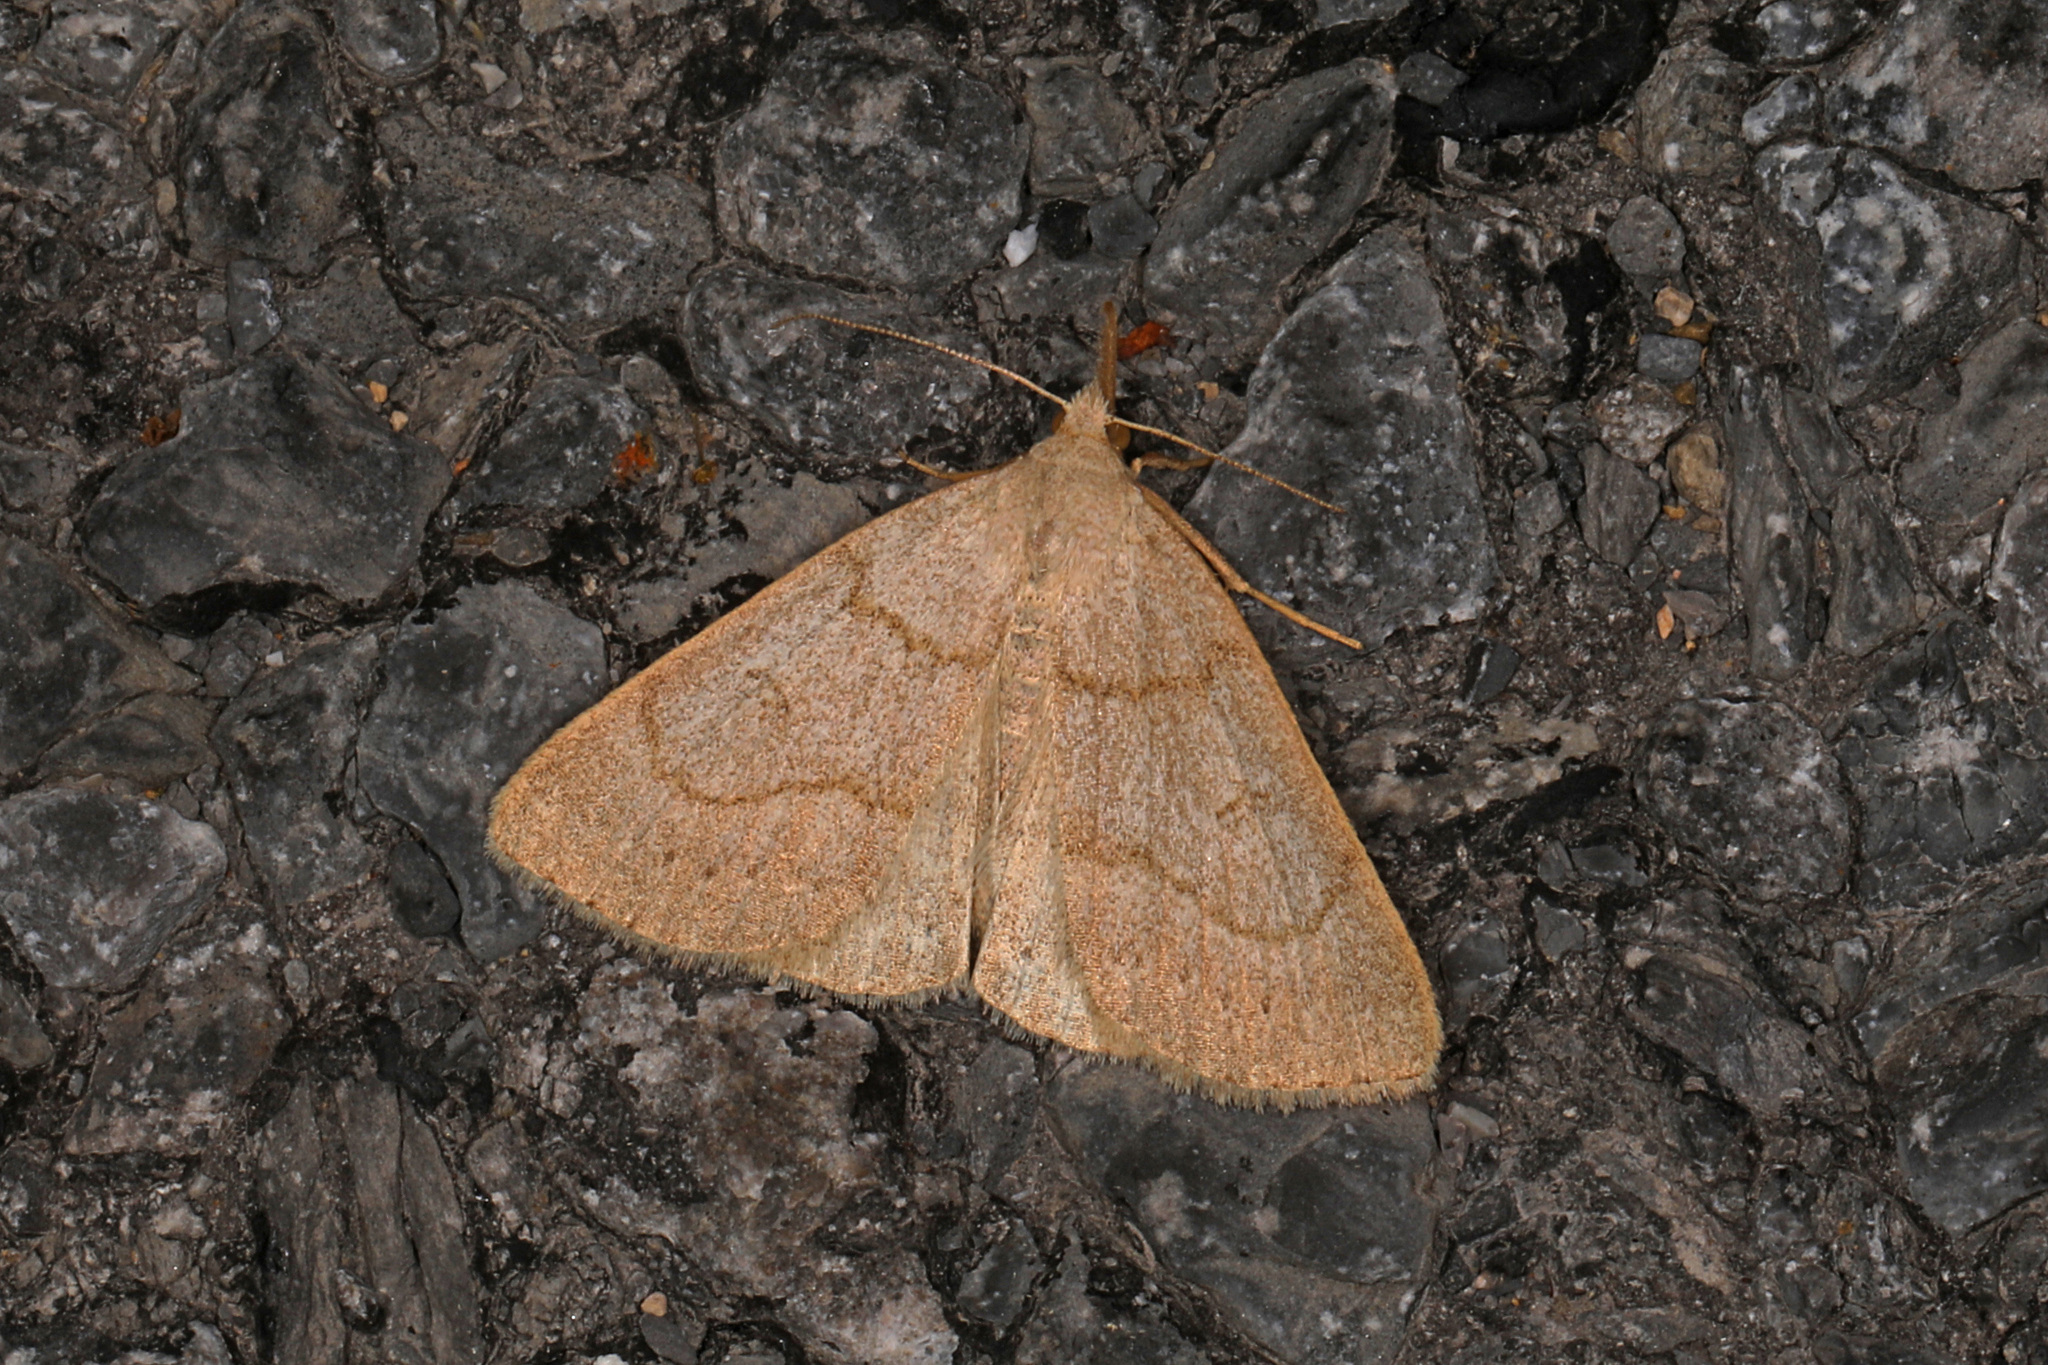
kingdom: Animalia
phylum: Arthropoda
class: Insecta
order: Lepidoptera
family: Erebidae
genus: Macrochilo
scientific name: Macrochilo morbidalis
